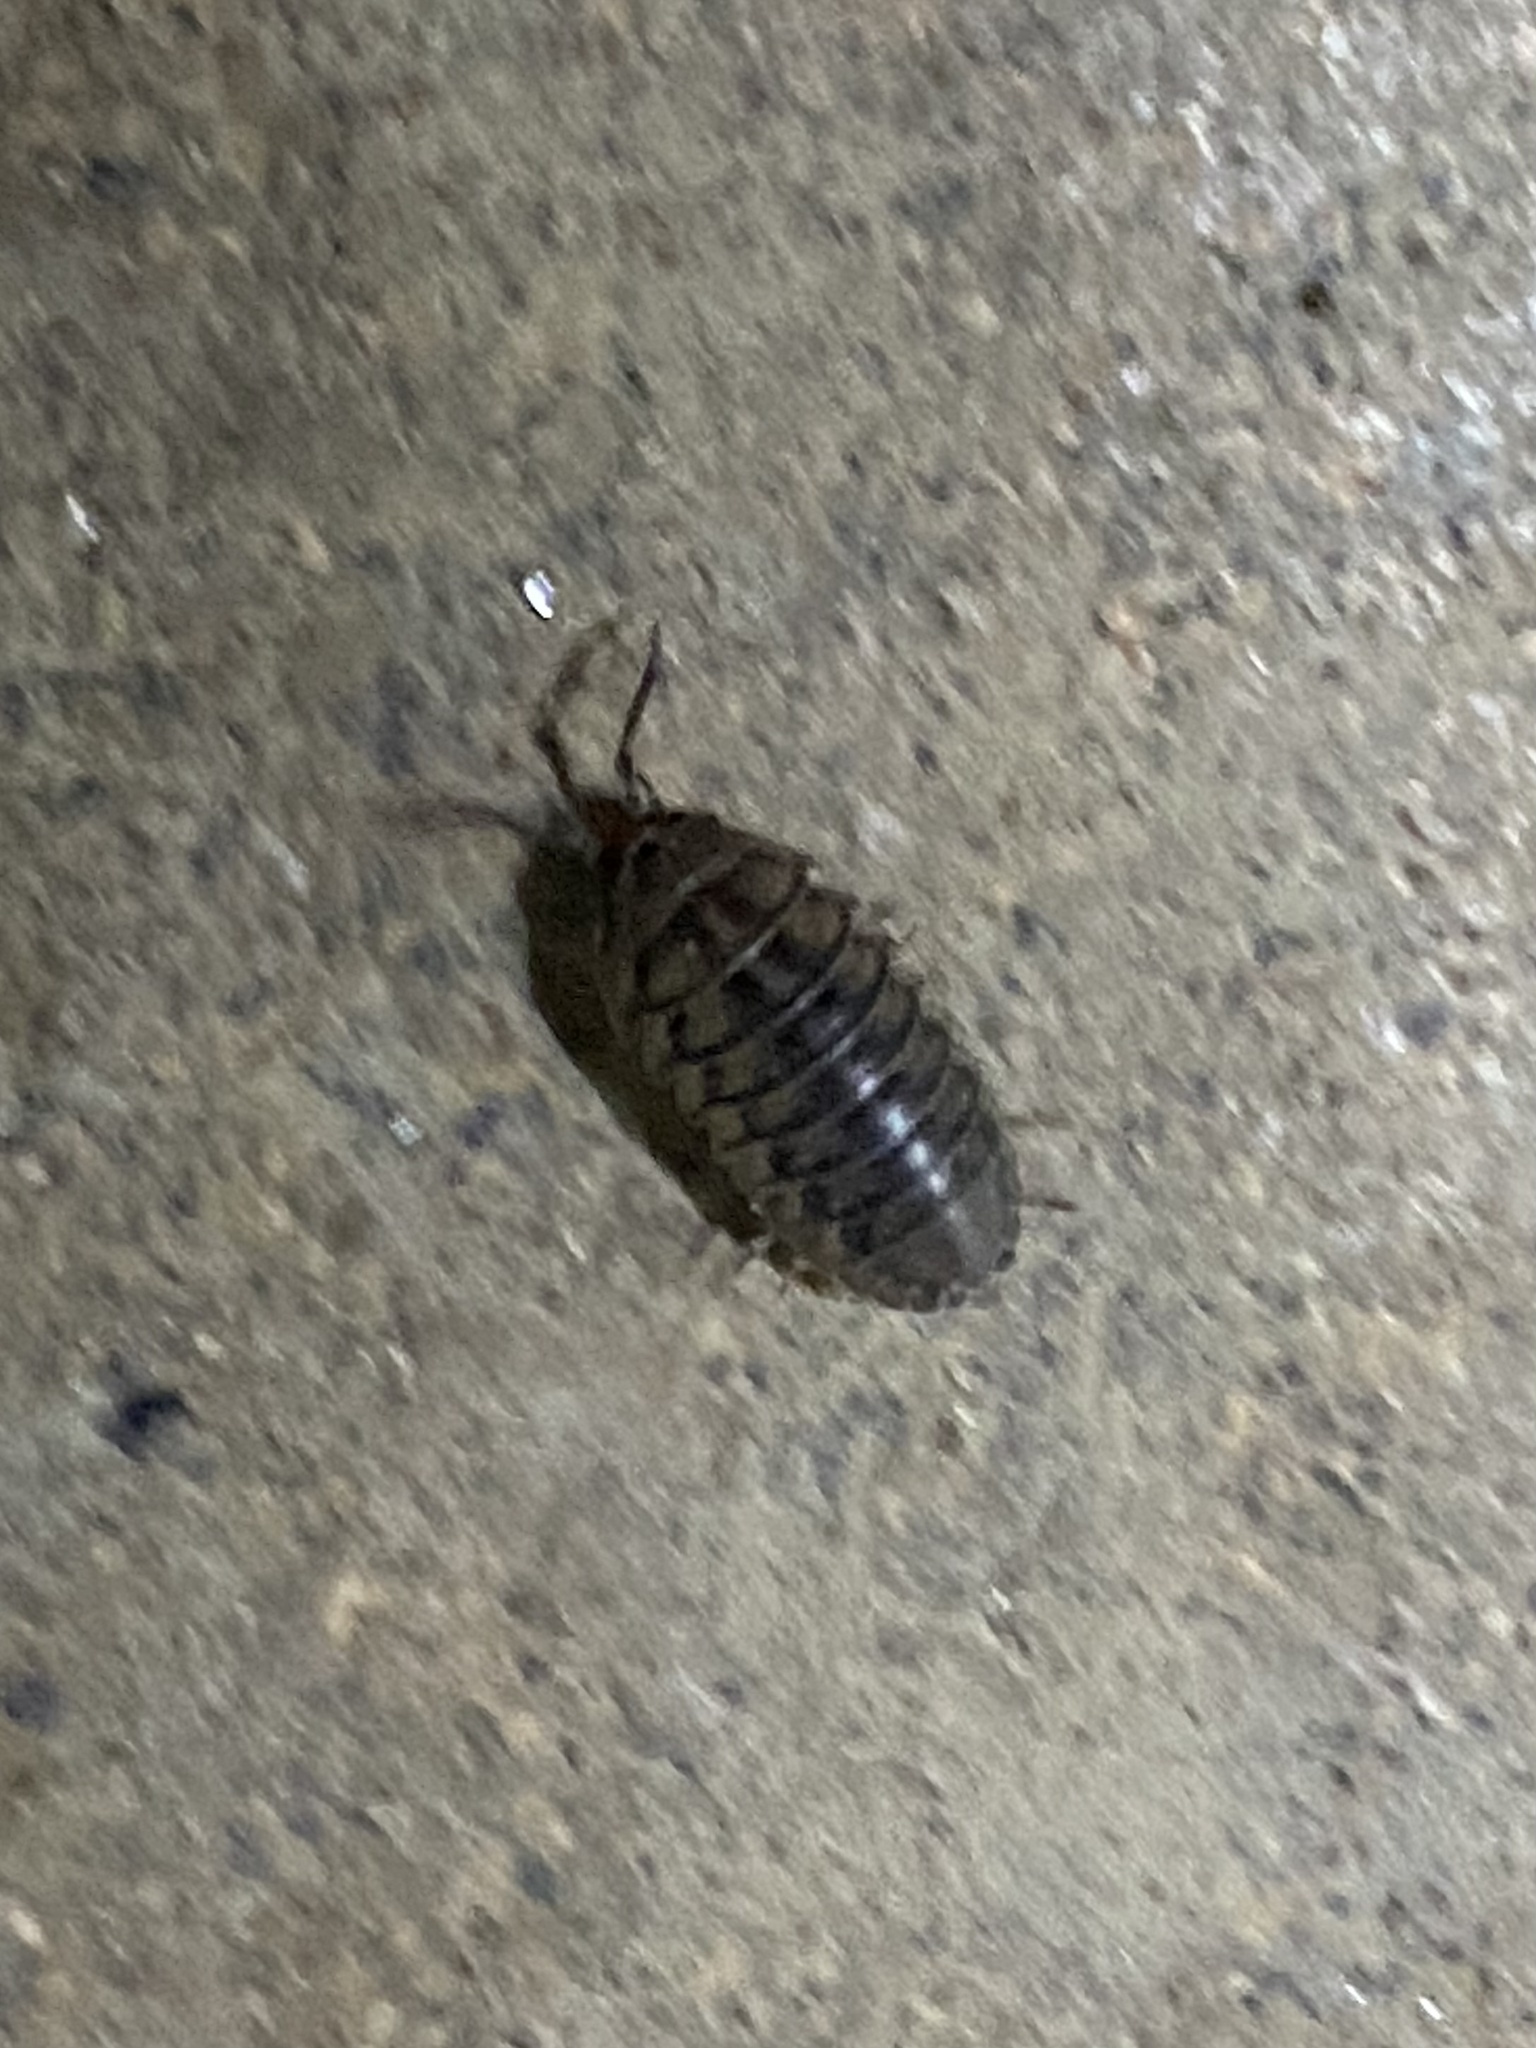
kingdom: Animalia
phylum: Arthropoda
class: Malacostraca
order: Isopoda
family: Armadillidiidae
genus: Armadillidium
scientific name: Armadillidium nasatum
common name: Isopod
